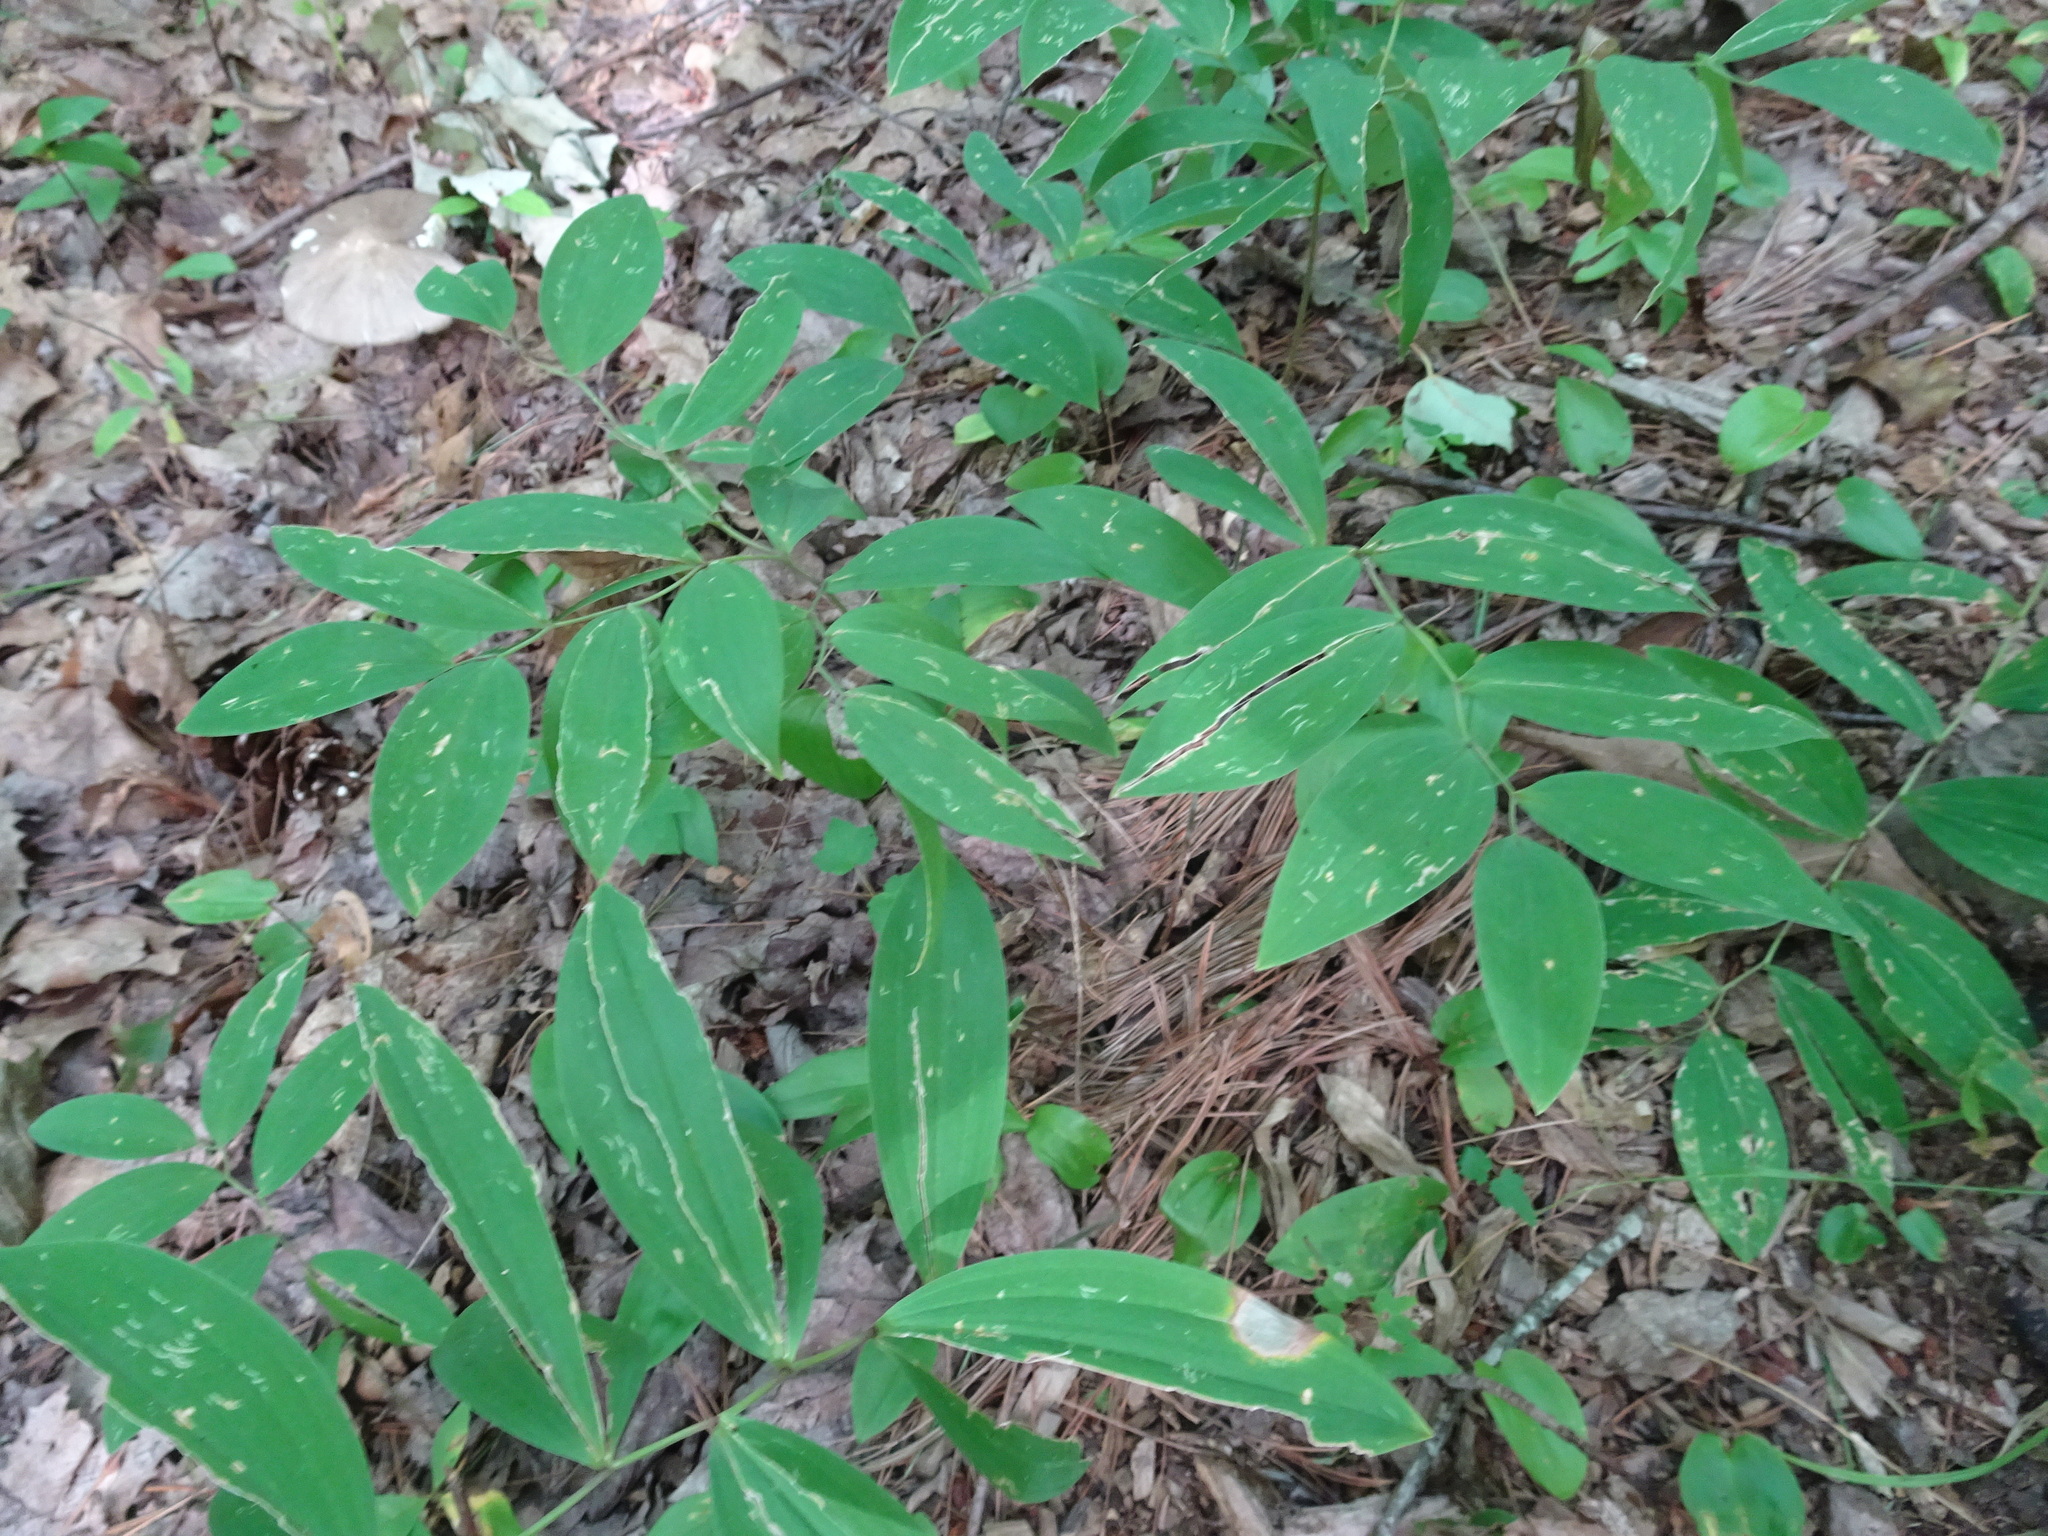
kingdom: Plantae
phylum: Tracheophyta
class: Liliopsida
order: Liliales
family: Colchicaceae
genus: Uvularia
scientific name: Uvularia sessilifolia
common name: Straw-lily
